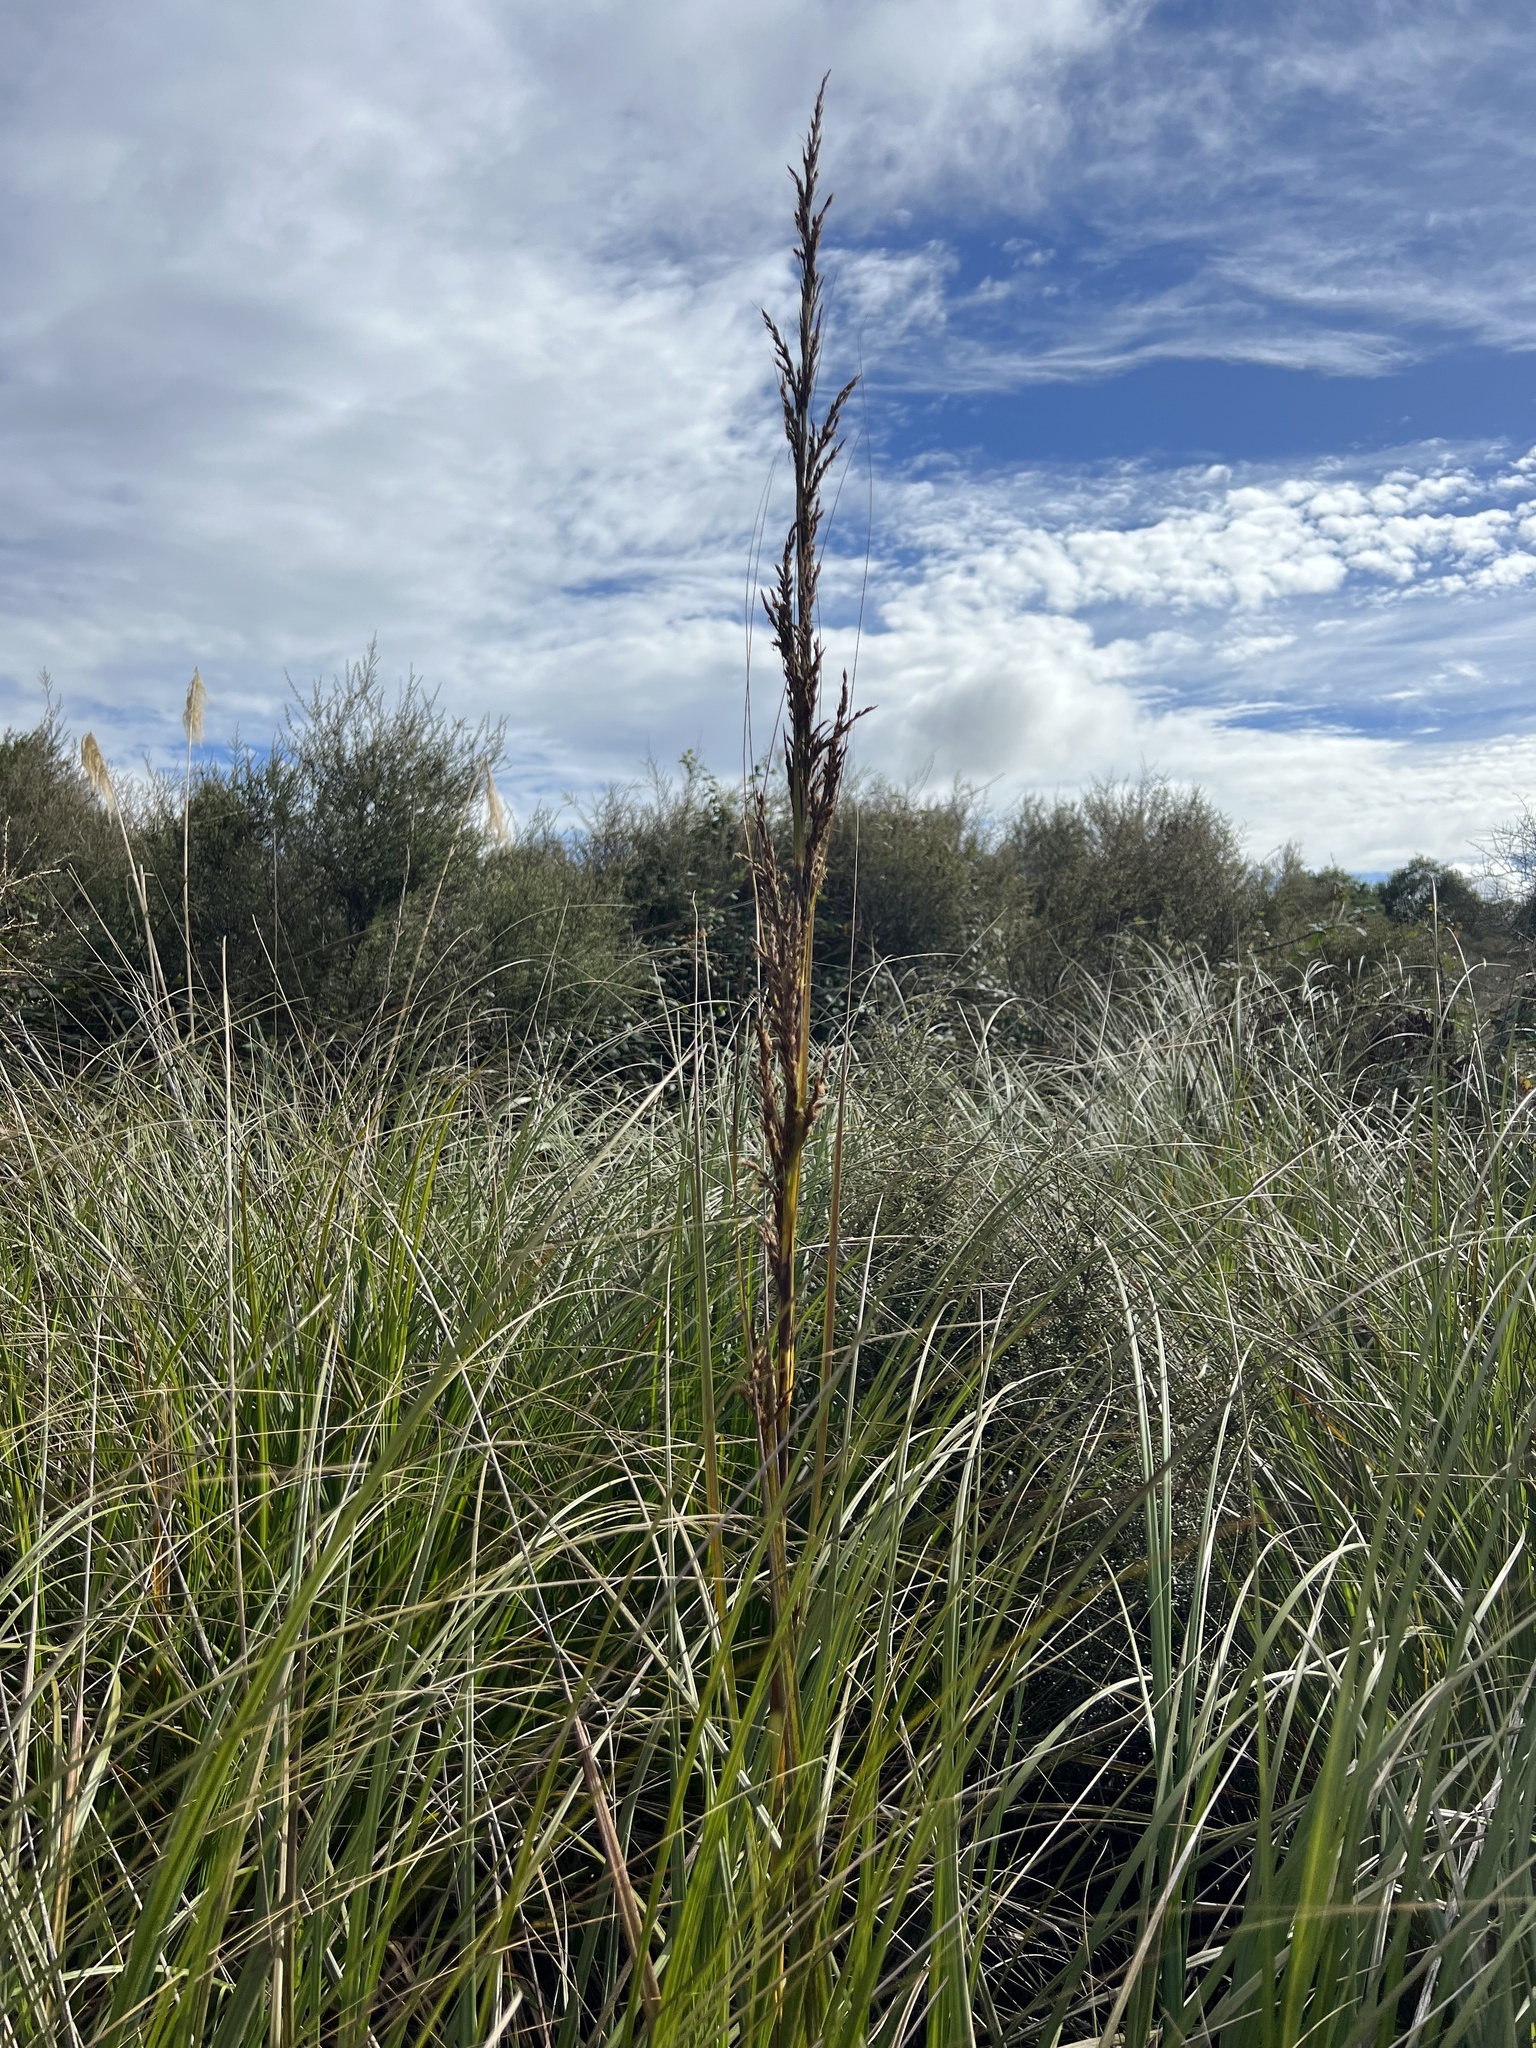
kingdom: Plantae
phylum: Tracheophyta
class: Liliopsida
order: Poales
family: Cyperaceae
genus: Gahnia
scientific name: Gahnia rigida
